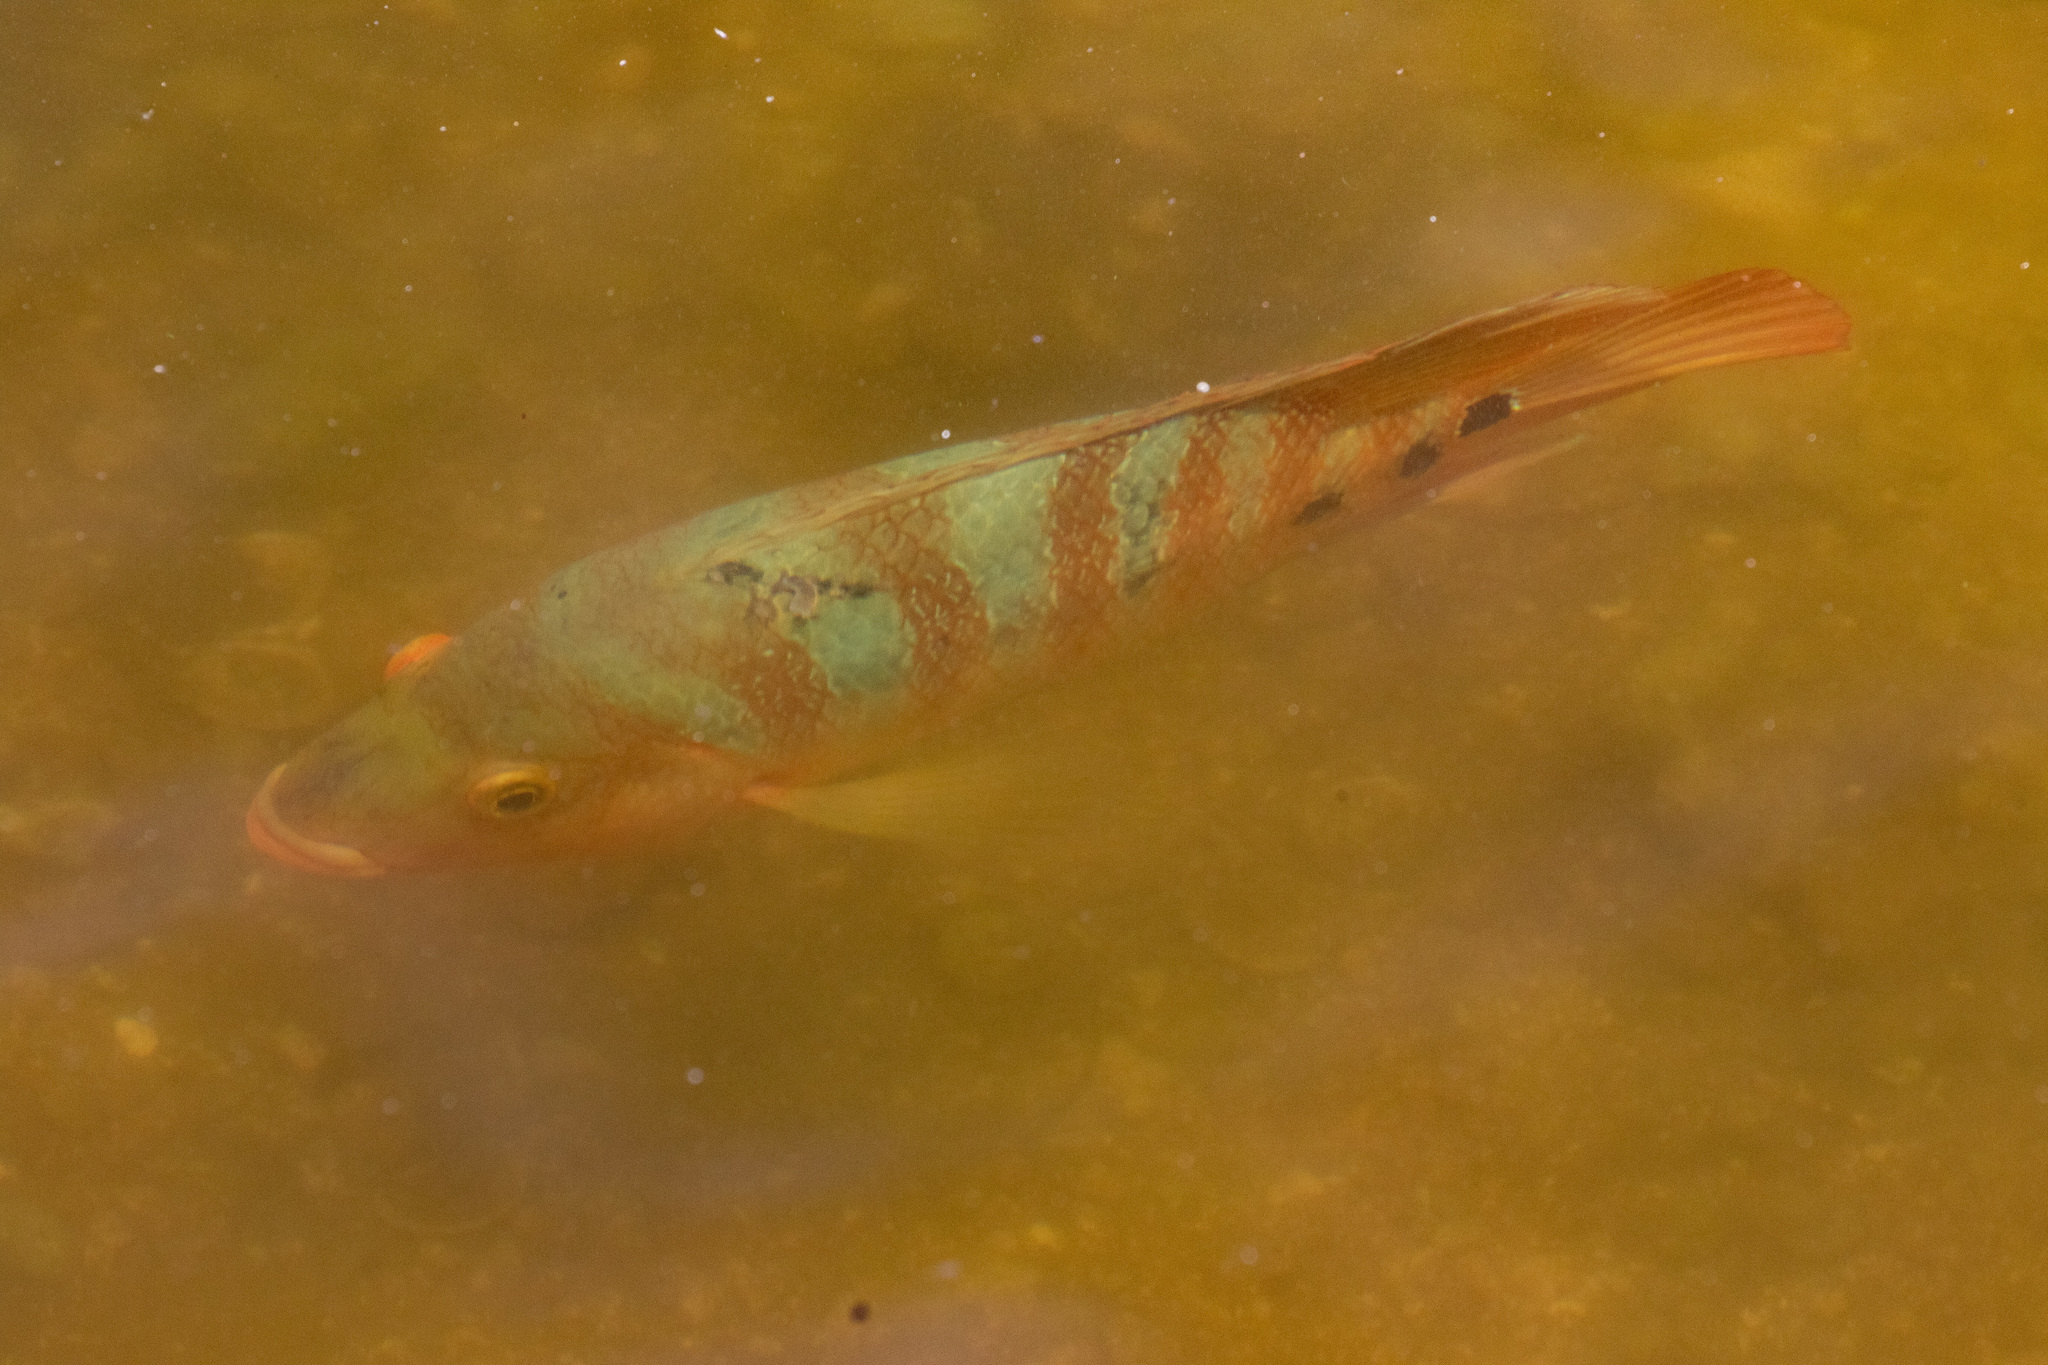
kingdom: Animalia
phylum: Chordata
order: Perciformes
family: Cichlidae
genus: Mayaheros
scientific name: Mayaheros urophthalmus
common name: Mayan cichlid
